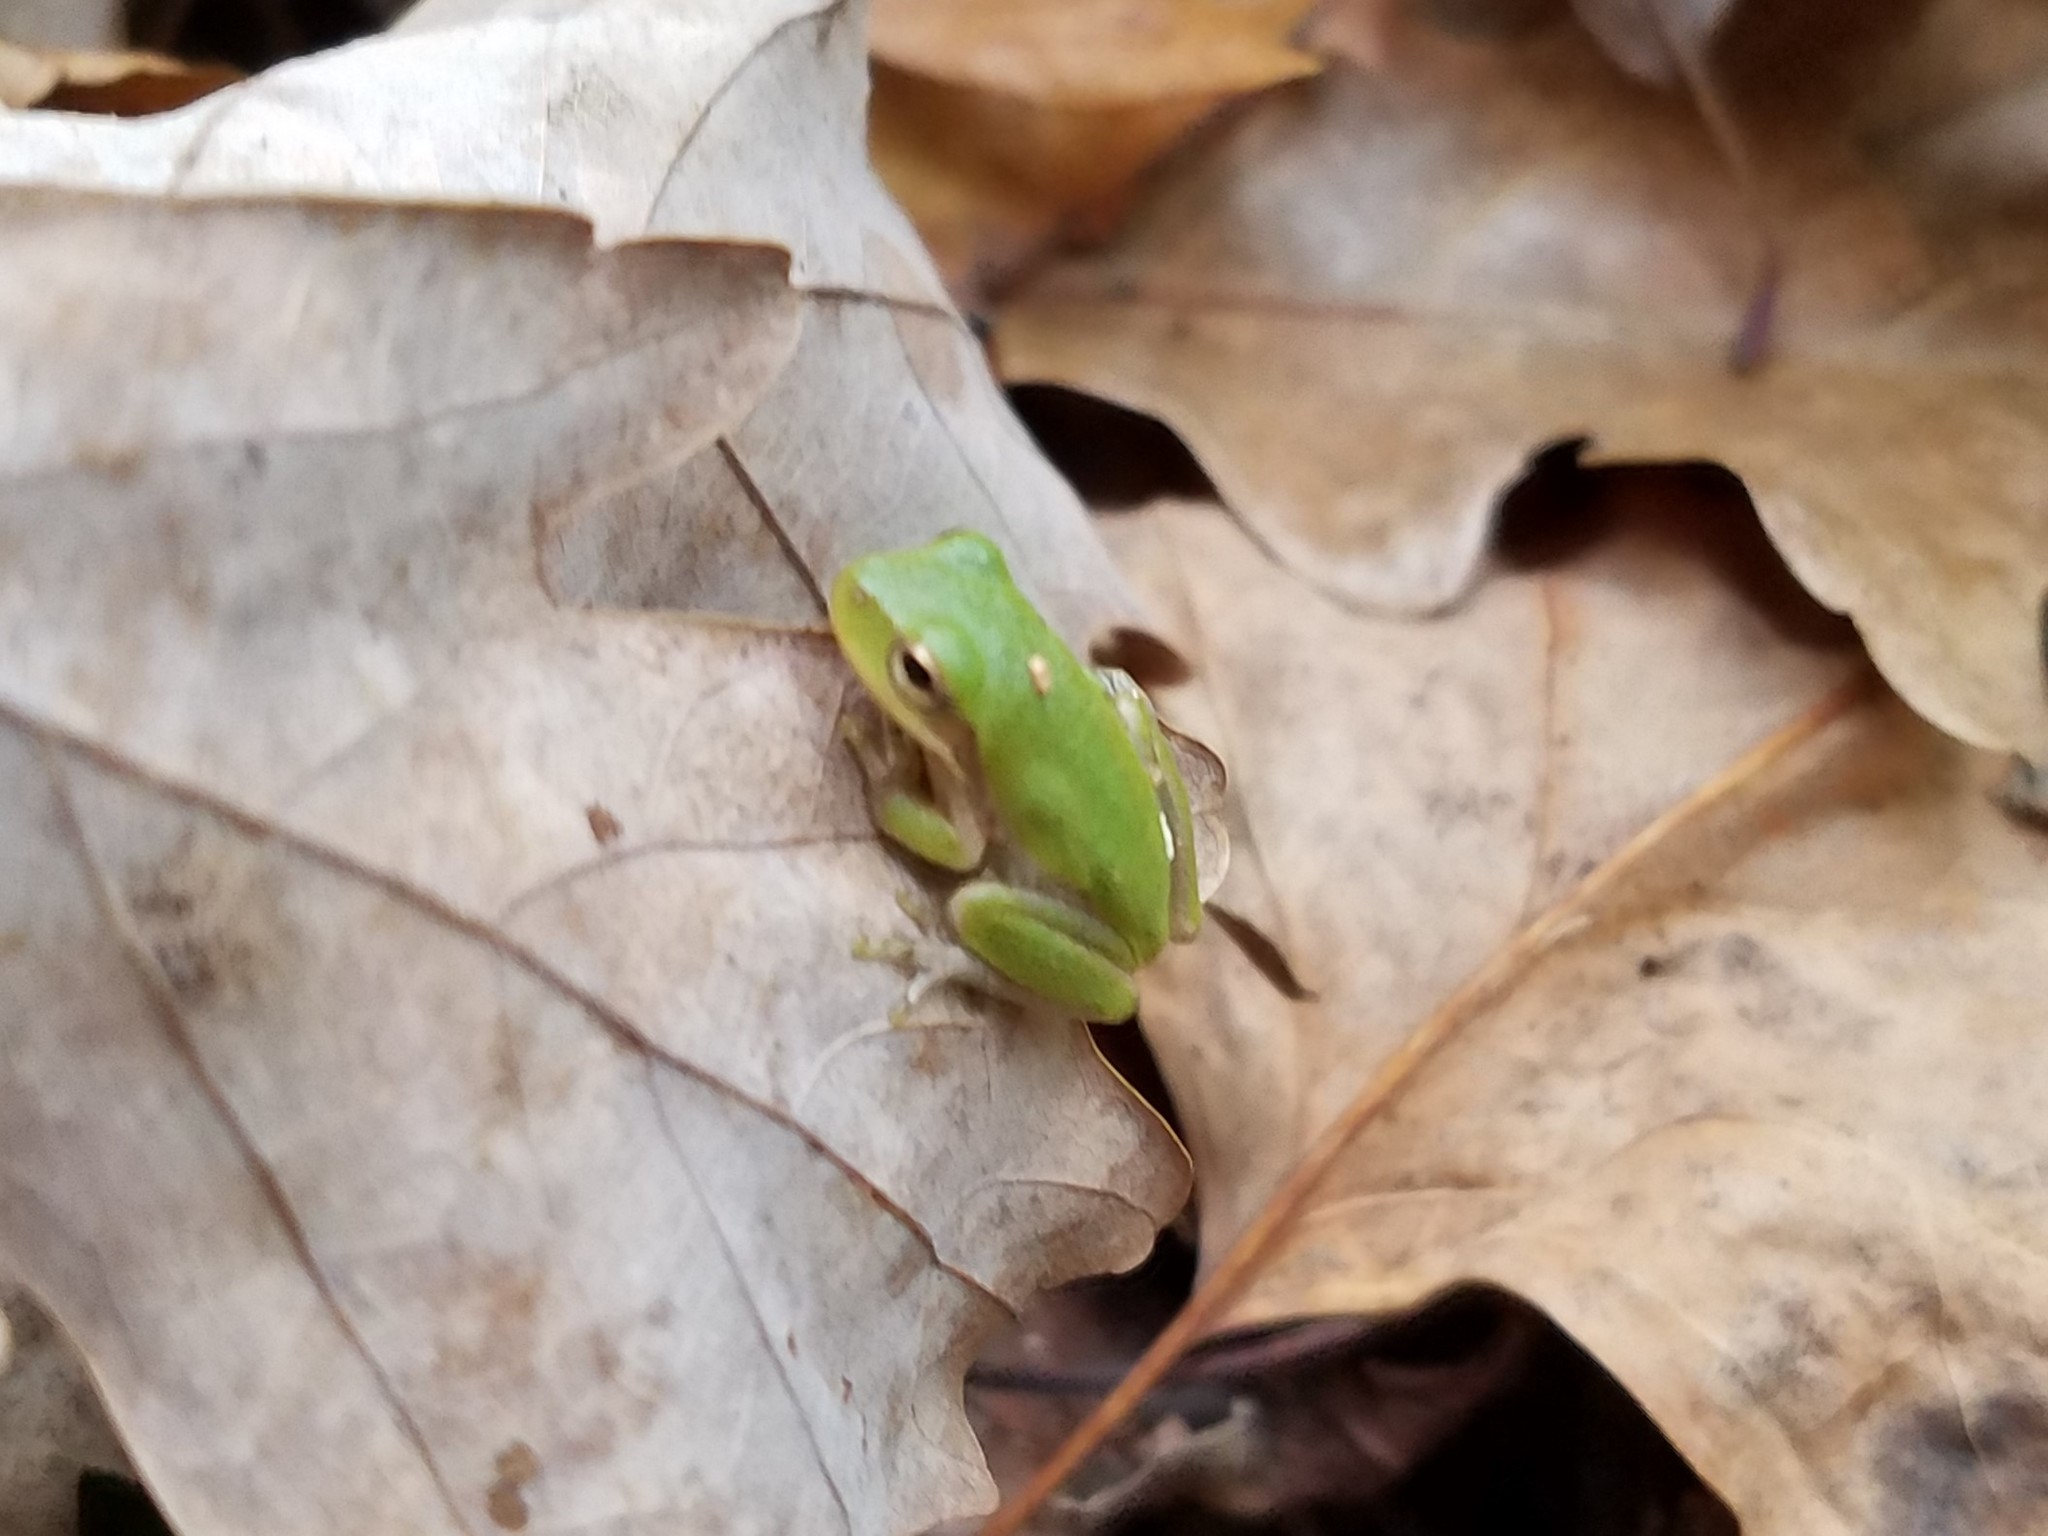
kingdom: Animalia
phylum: Chordata
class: Amphibia
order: Anura
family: Hylidae
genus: Dryophytes
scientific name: Dryophytes squirellus
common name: Squirrel treefrog
